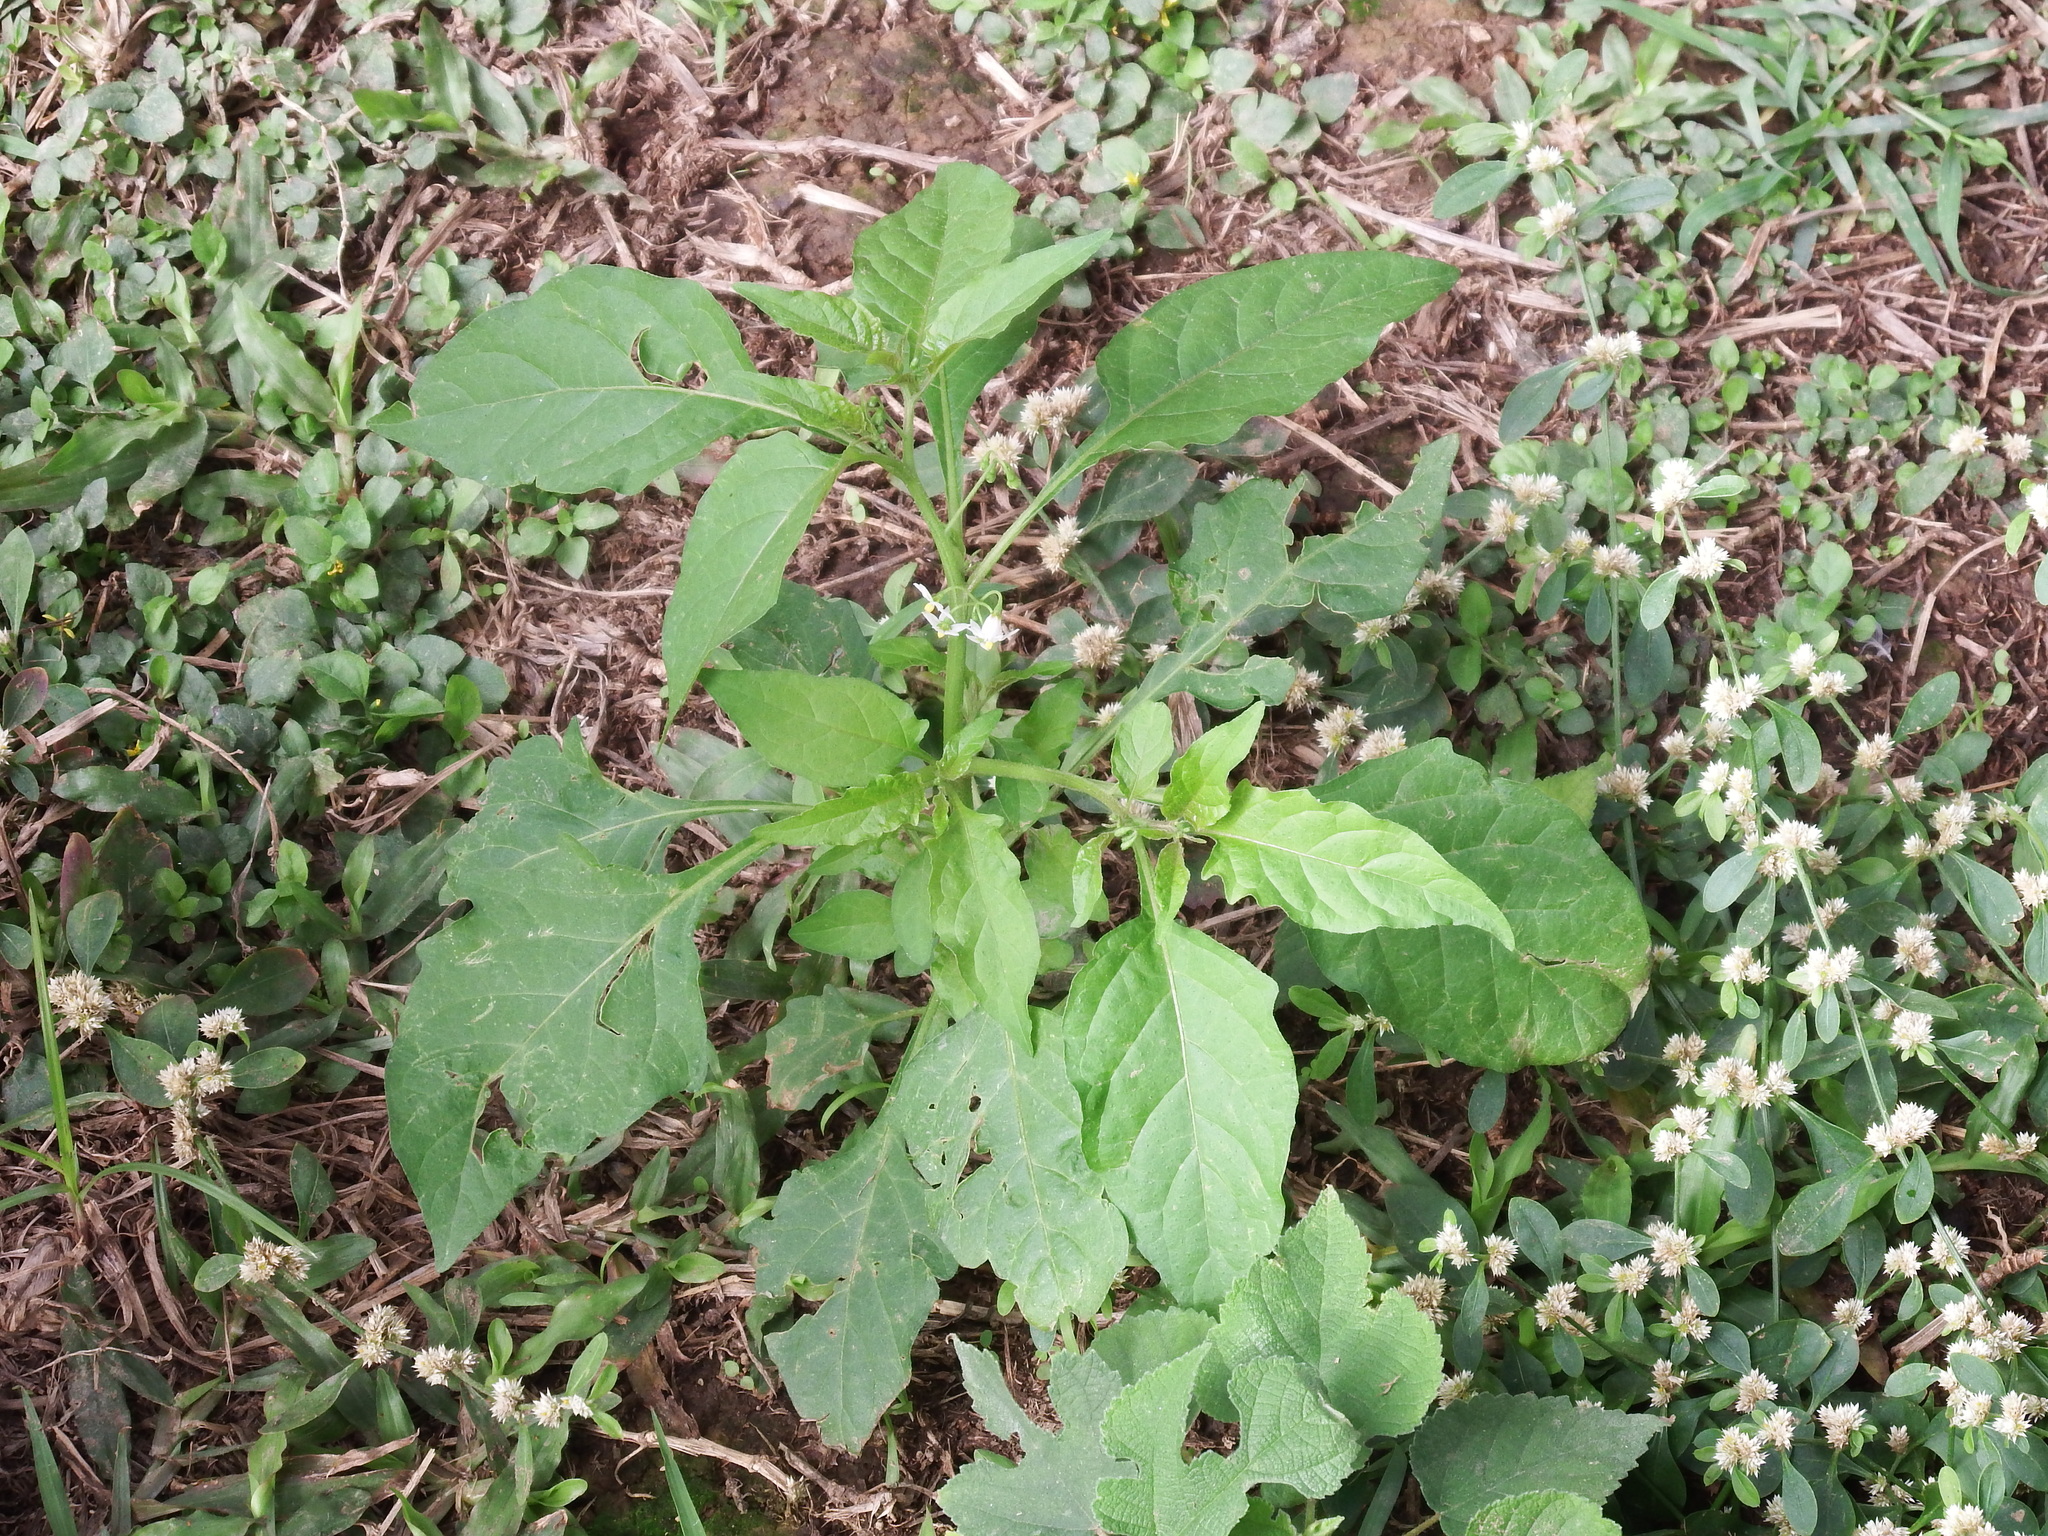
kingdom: Plantae
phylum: Tracheophyta
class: Magnoliopsida
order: Solanales
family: Solanaceae
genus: Solanum
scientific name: Solanum americanum
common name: American black nightshade
